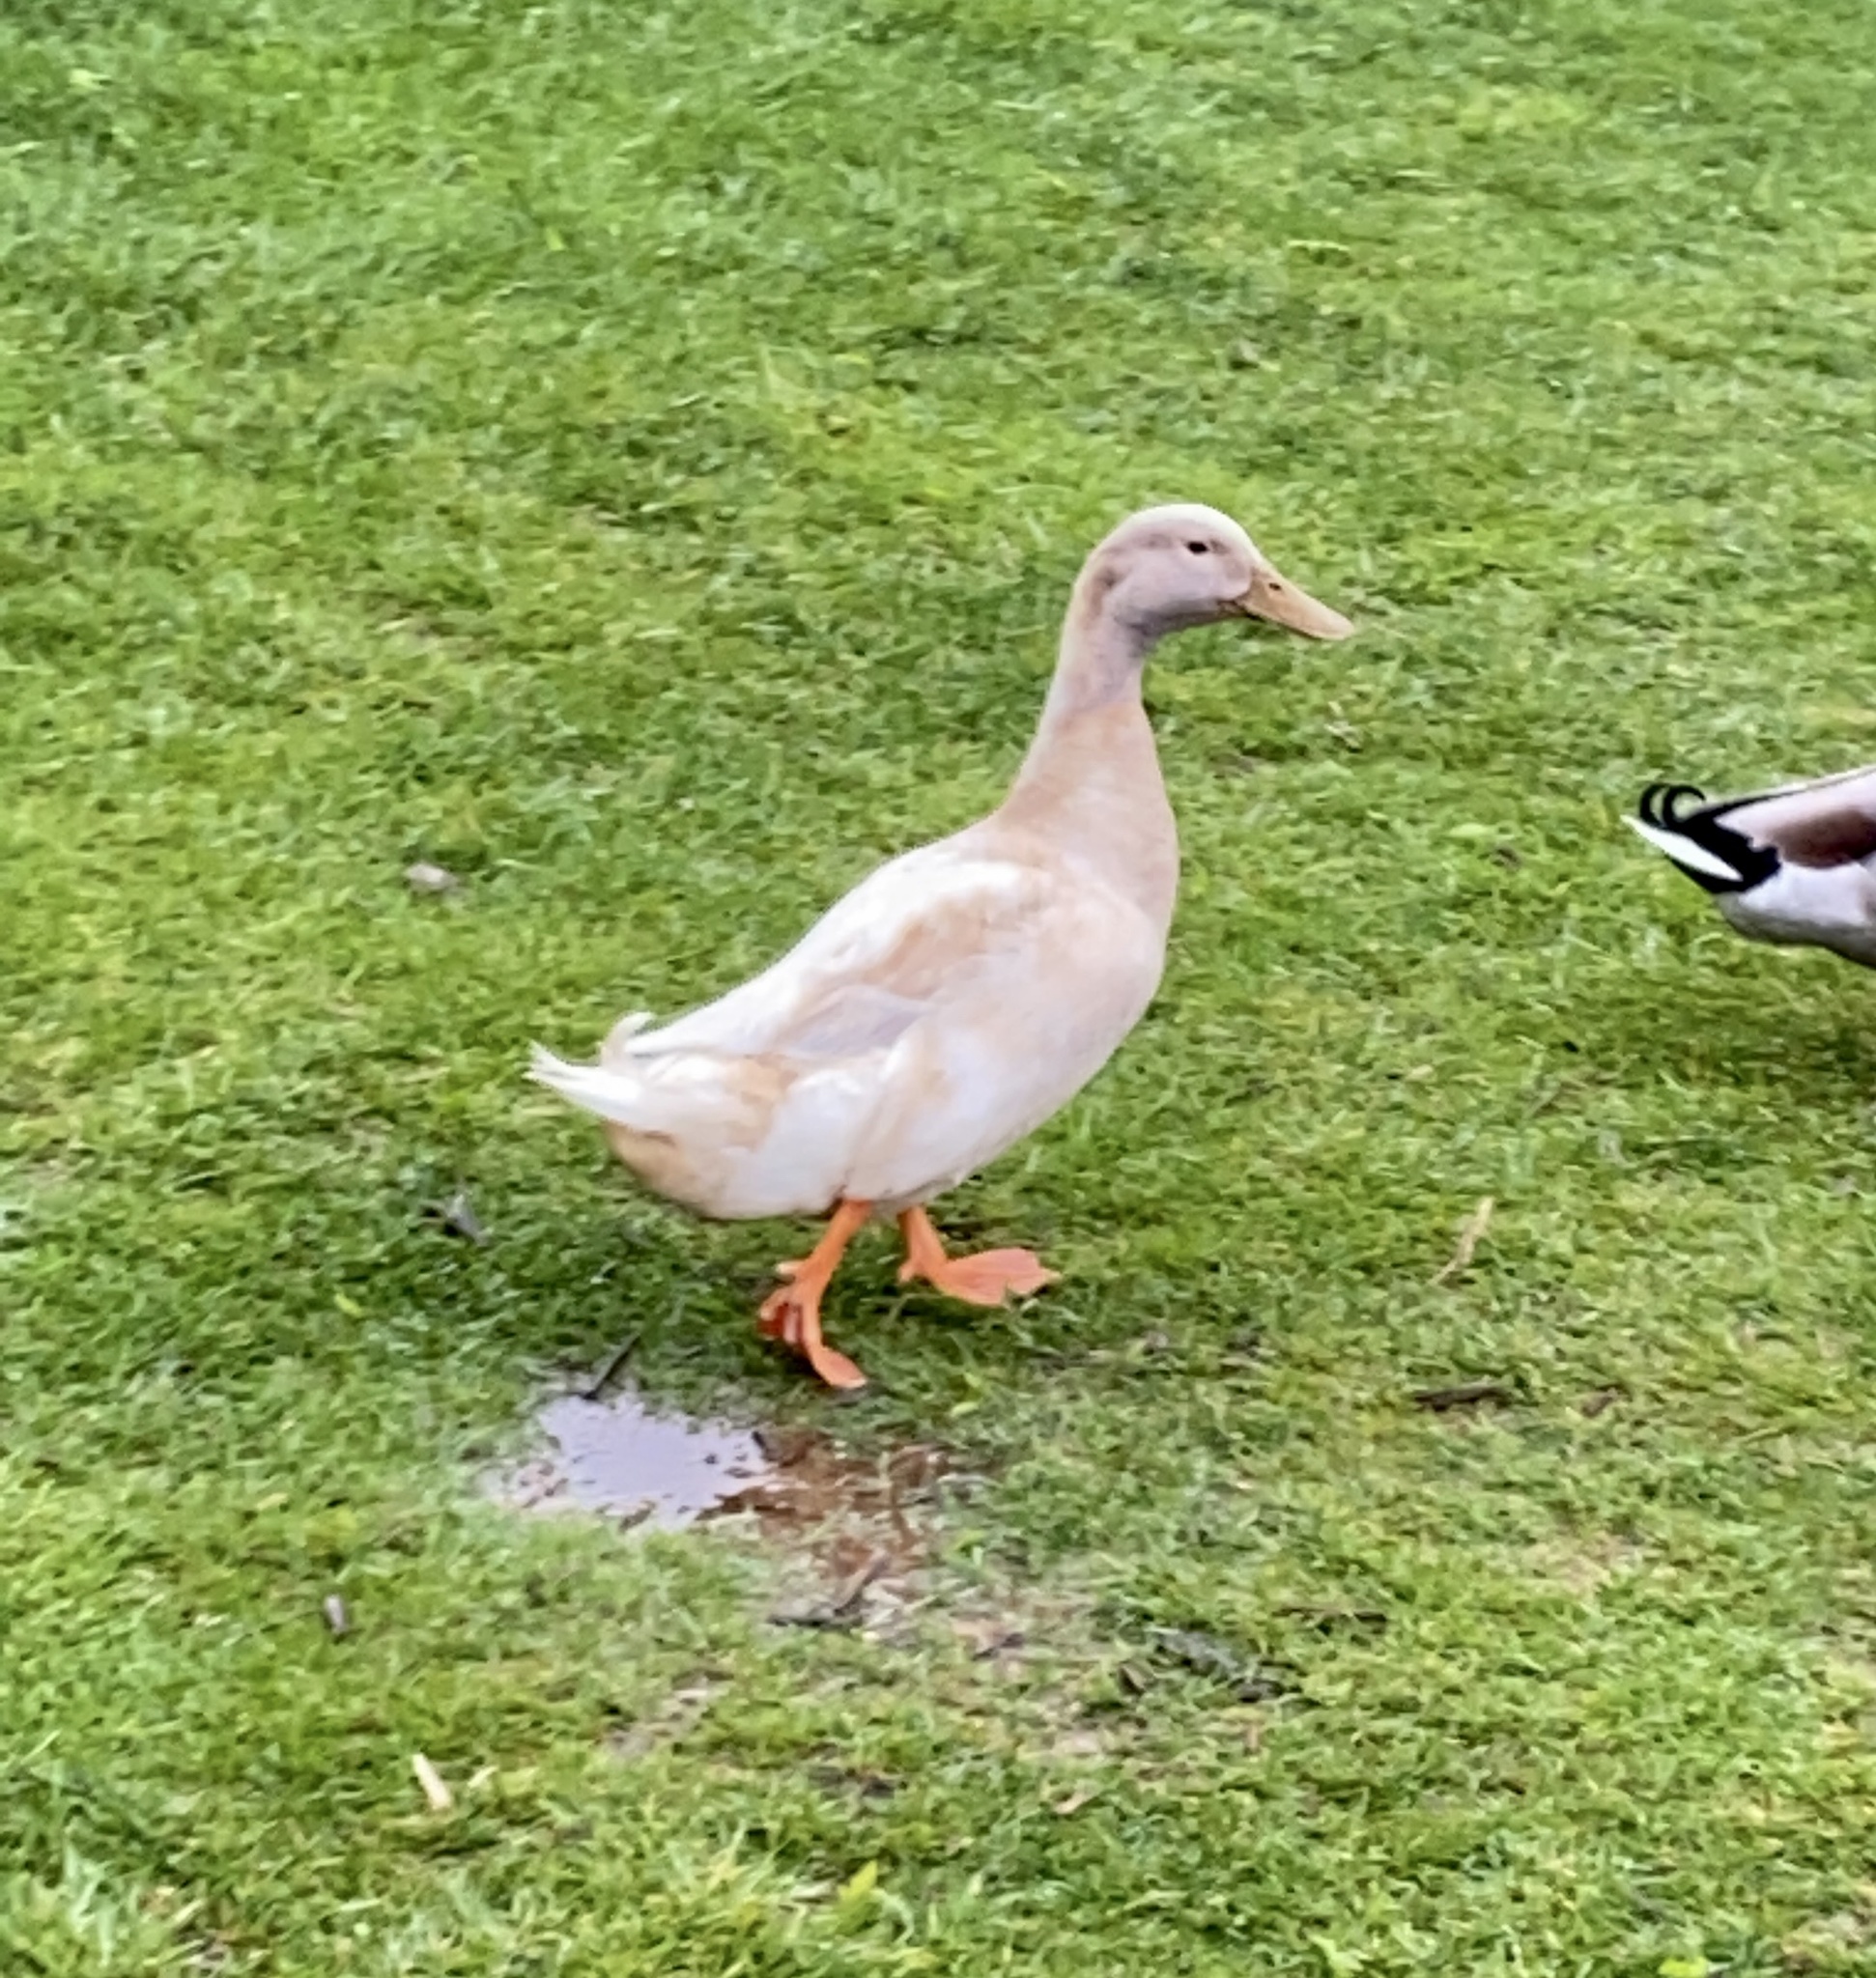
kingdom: Animalia
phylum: Chordata
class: Aves
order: Anseriformes
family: Anatidae
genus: Anas
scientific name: Anas platyrhynchos
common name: Mallard
